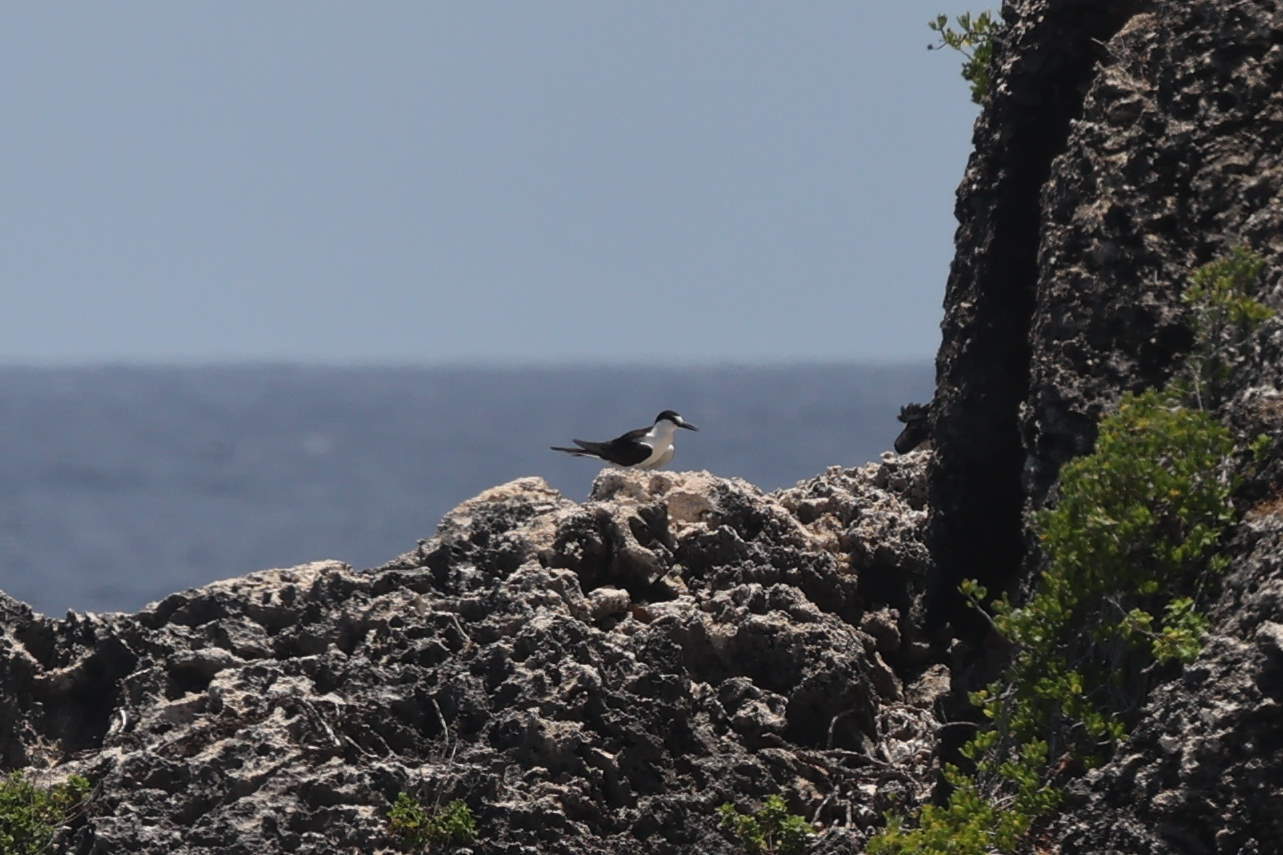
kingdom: Animalia
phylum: Chordata
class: Aves
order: Charadriiformes
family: Laridae
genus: Onychoprion
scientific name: Onychoprion fuscatus
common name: Sooty tern
